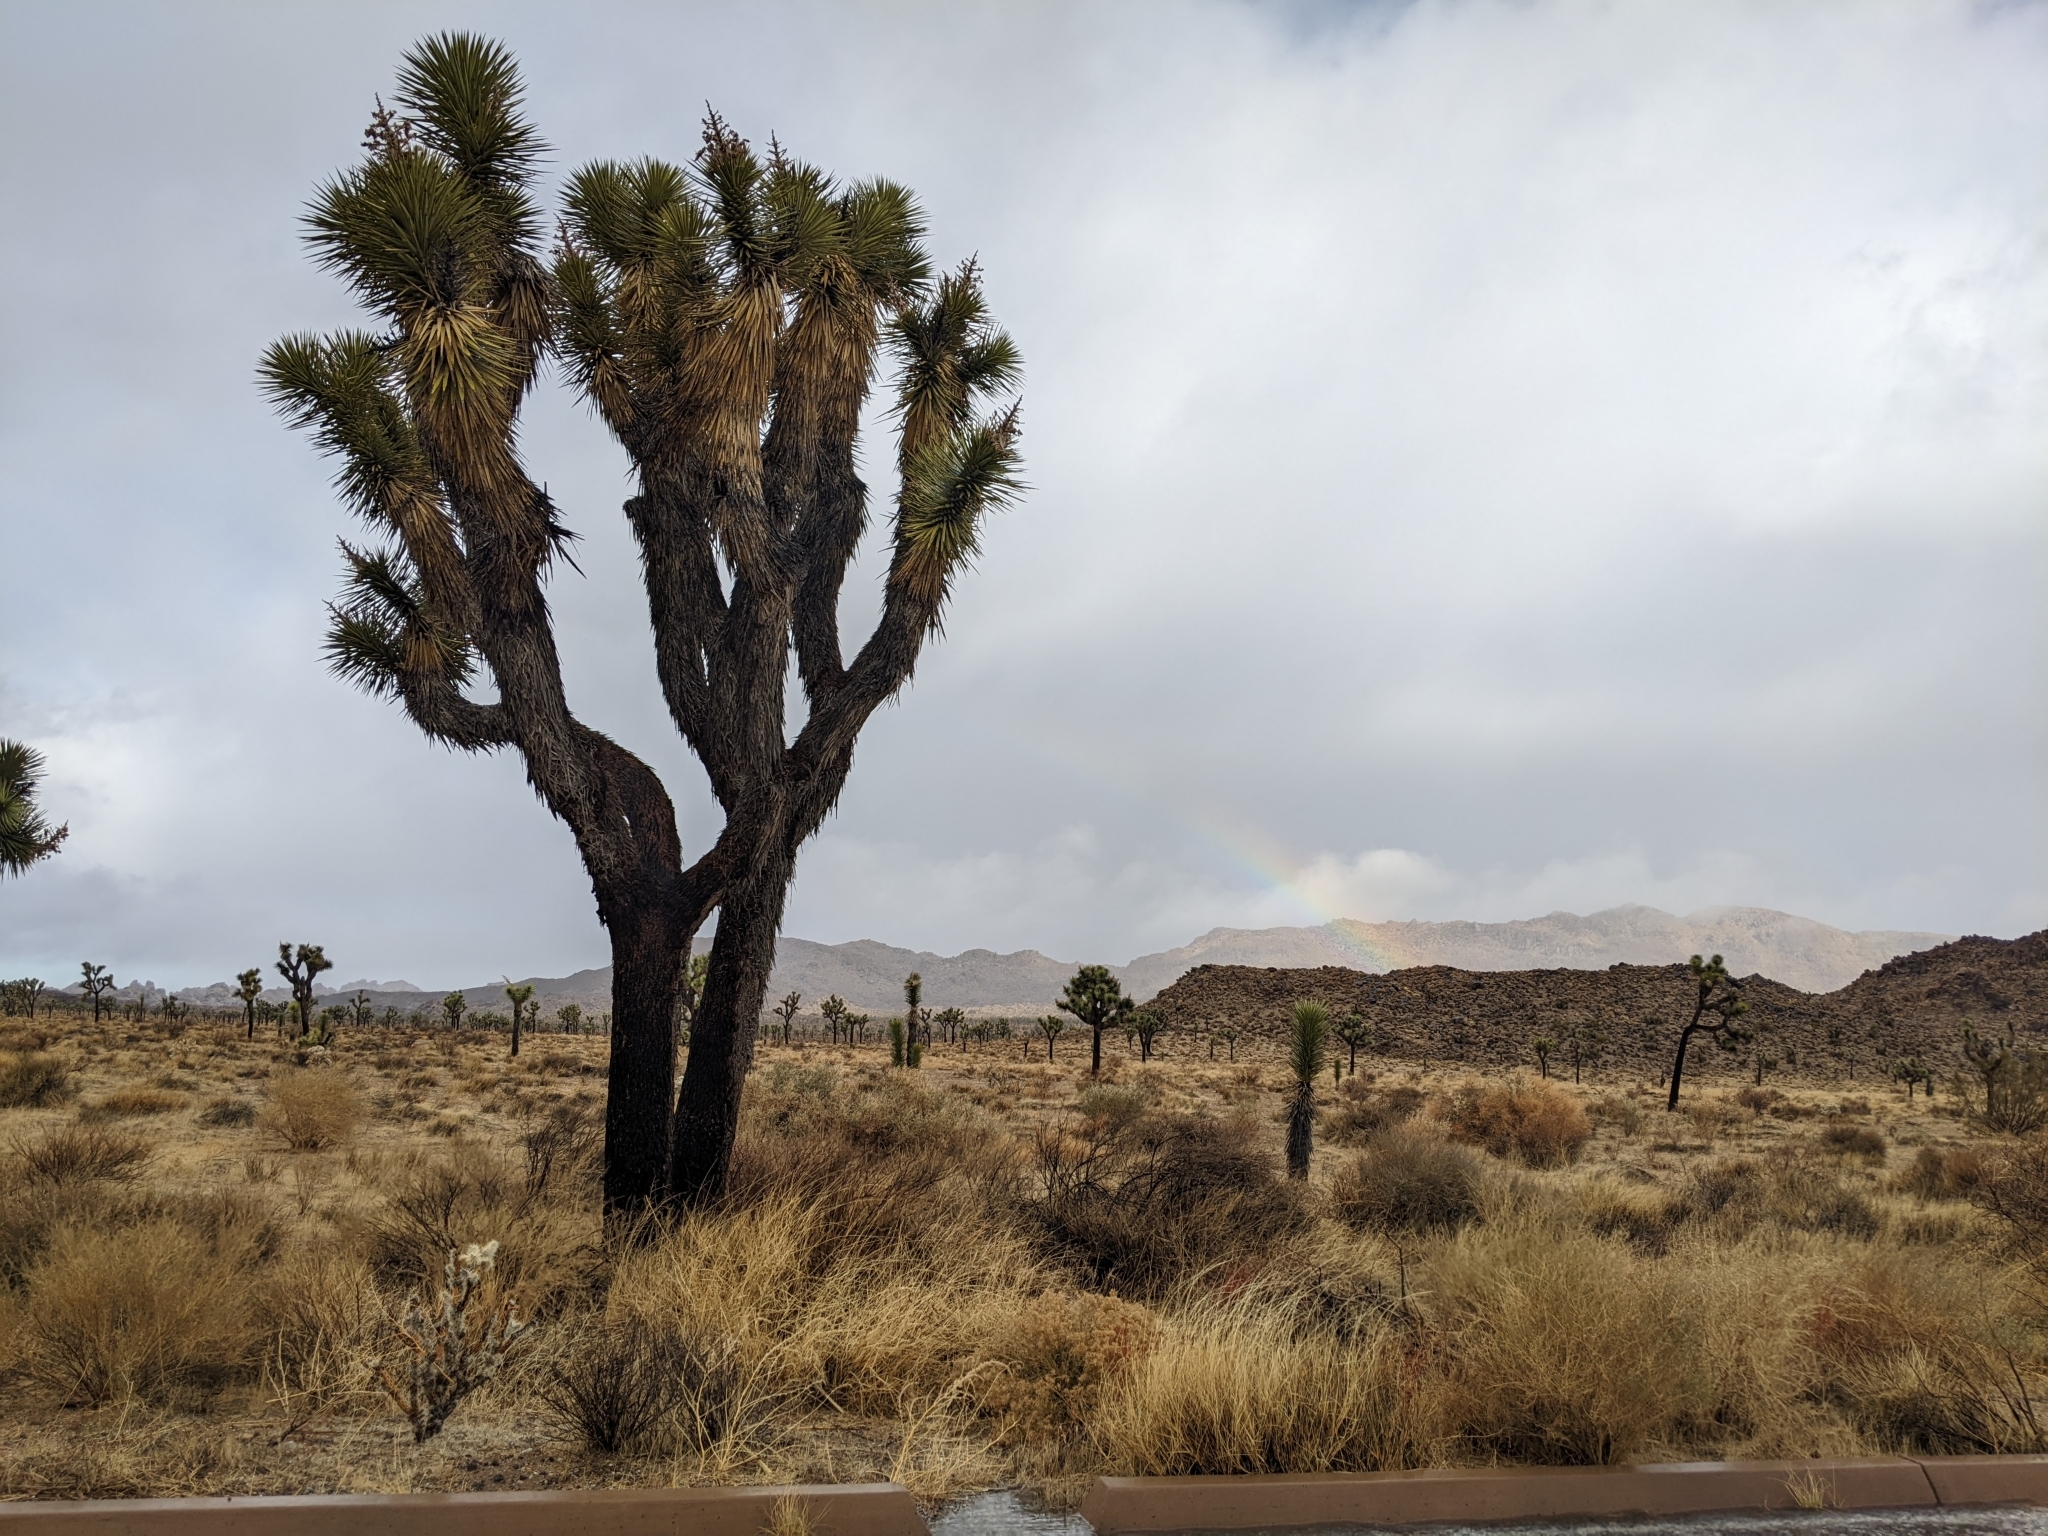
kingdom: Plantae
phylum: Tracheophyta
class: Liliopsida
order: Asparagales
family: Asparagaceae
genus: Yucca
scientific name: Yucca brevifolia
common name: Joshua tree
